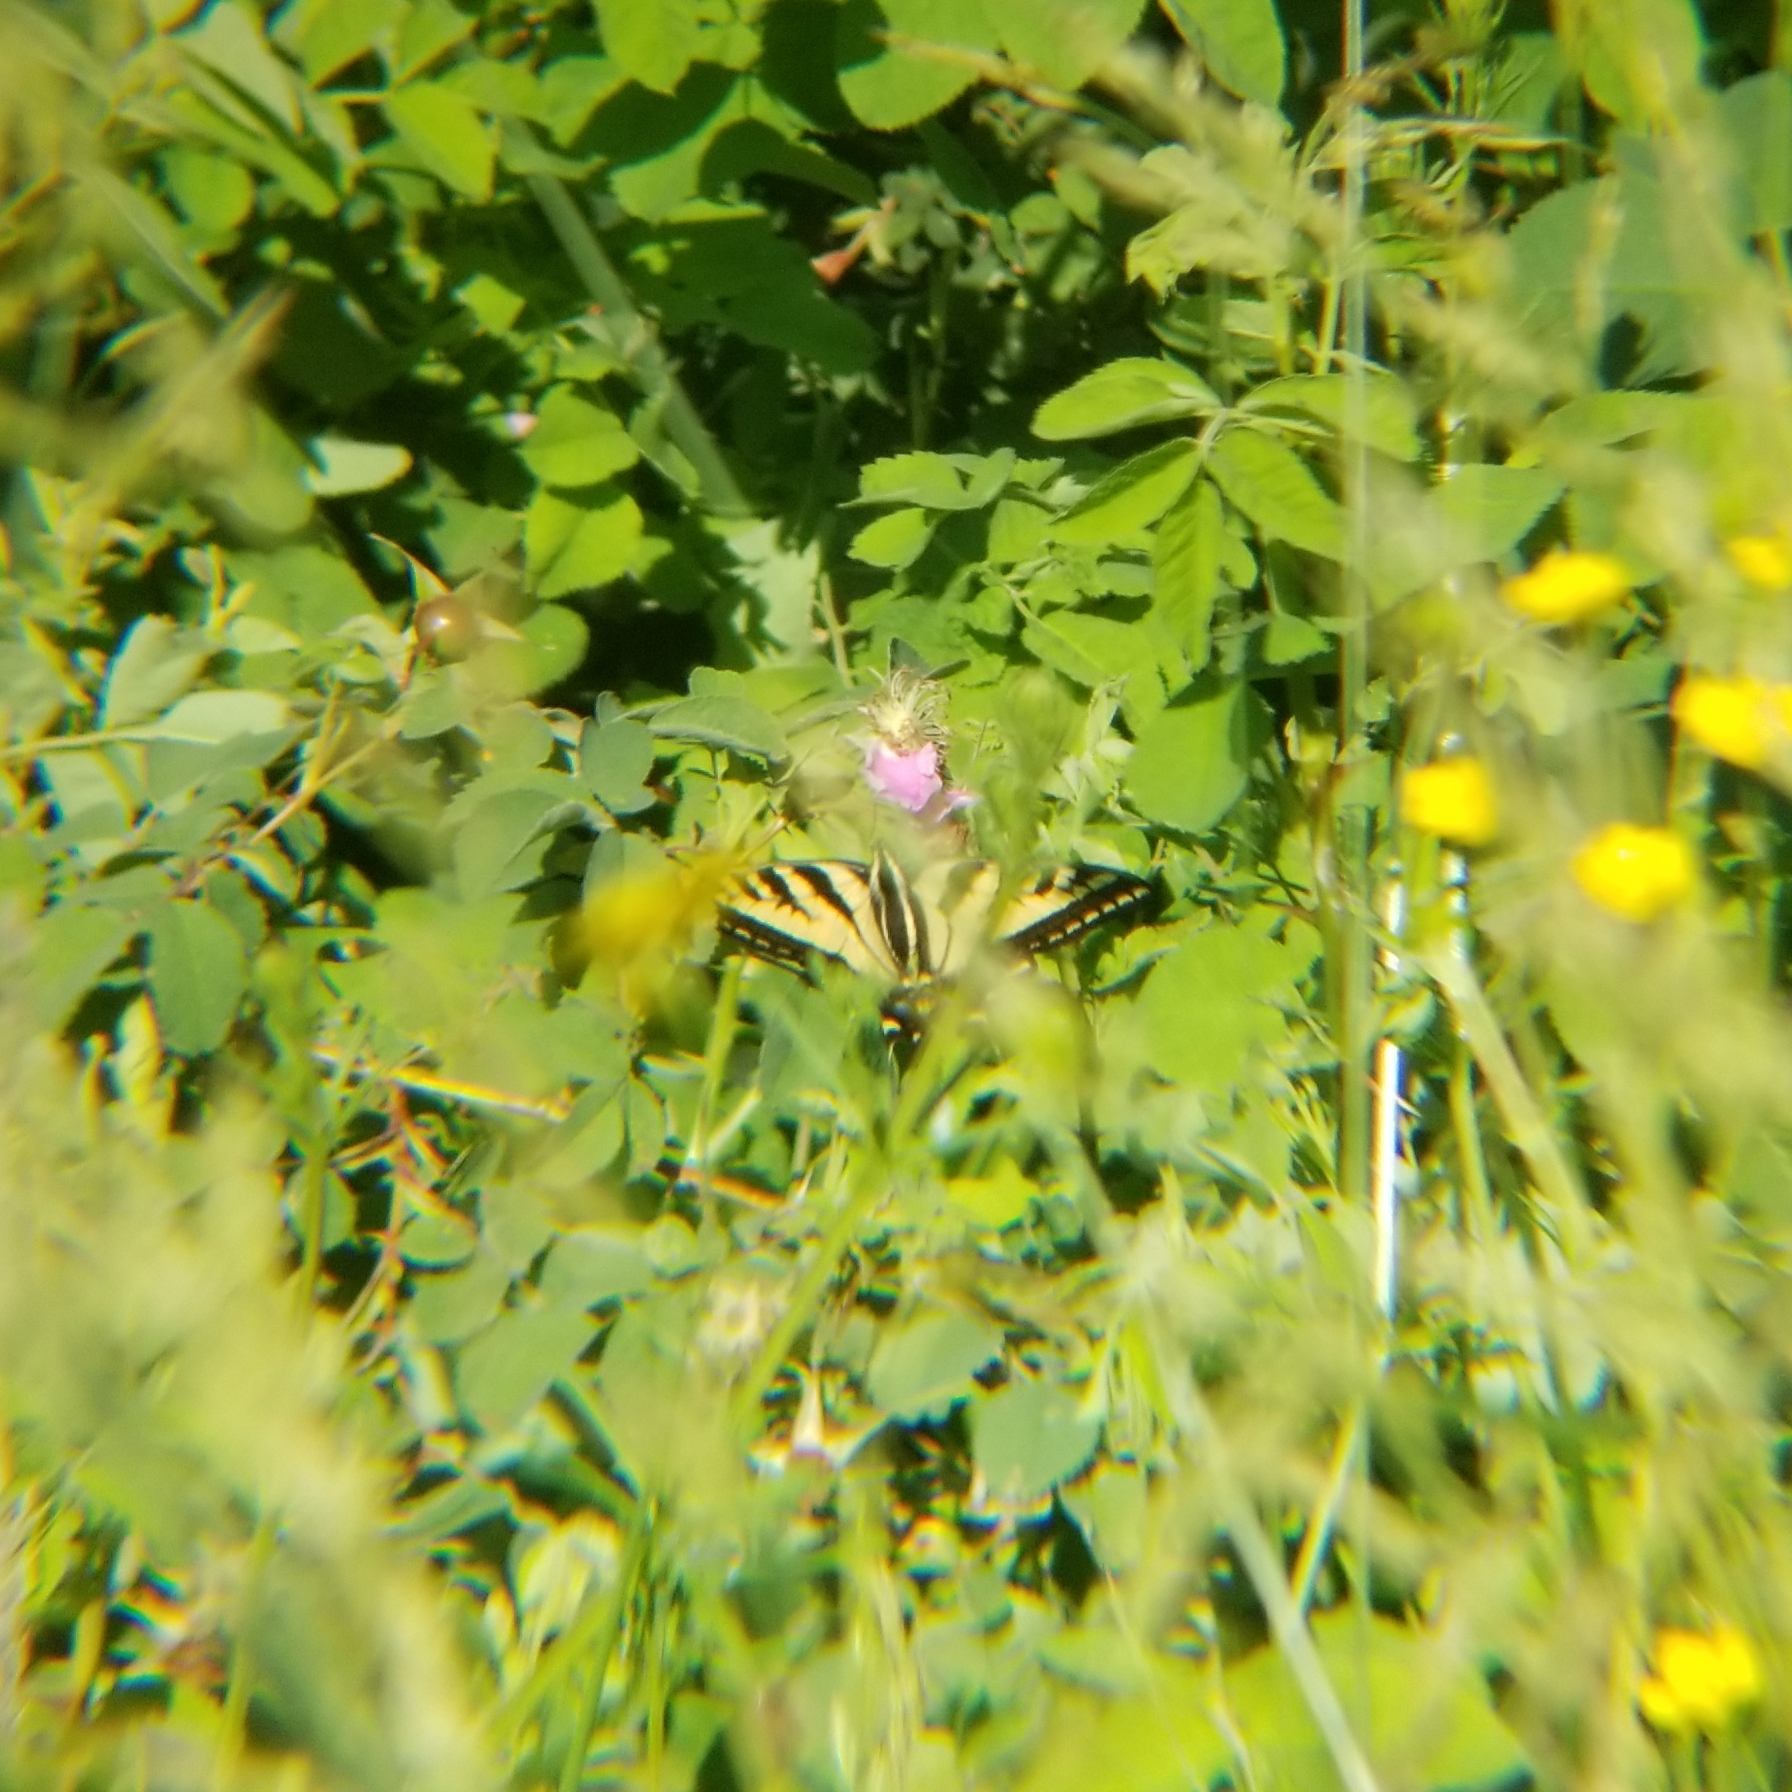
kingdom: Animalia
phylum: Arthropoda
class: Insecta
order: Lepidoptera
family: Papilionidae
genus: Papilio
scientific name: Papilio rutulus
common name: Western tiger swallowtail
